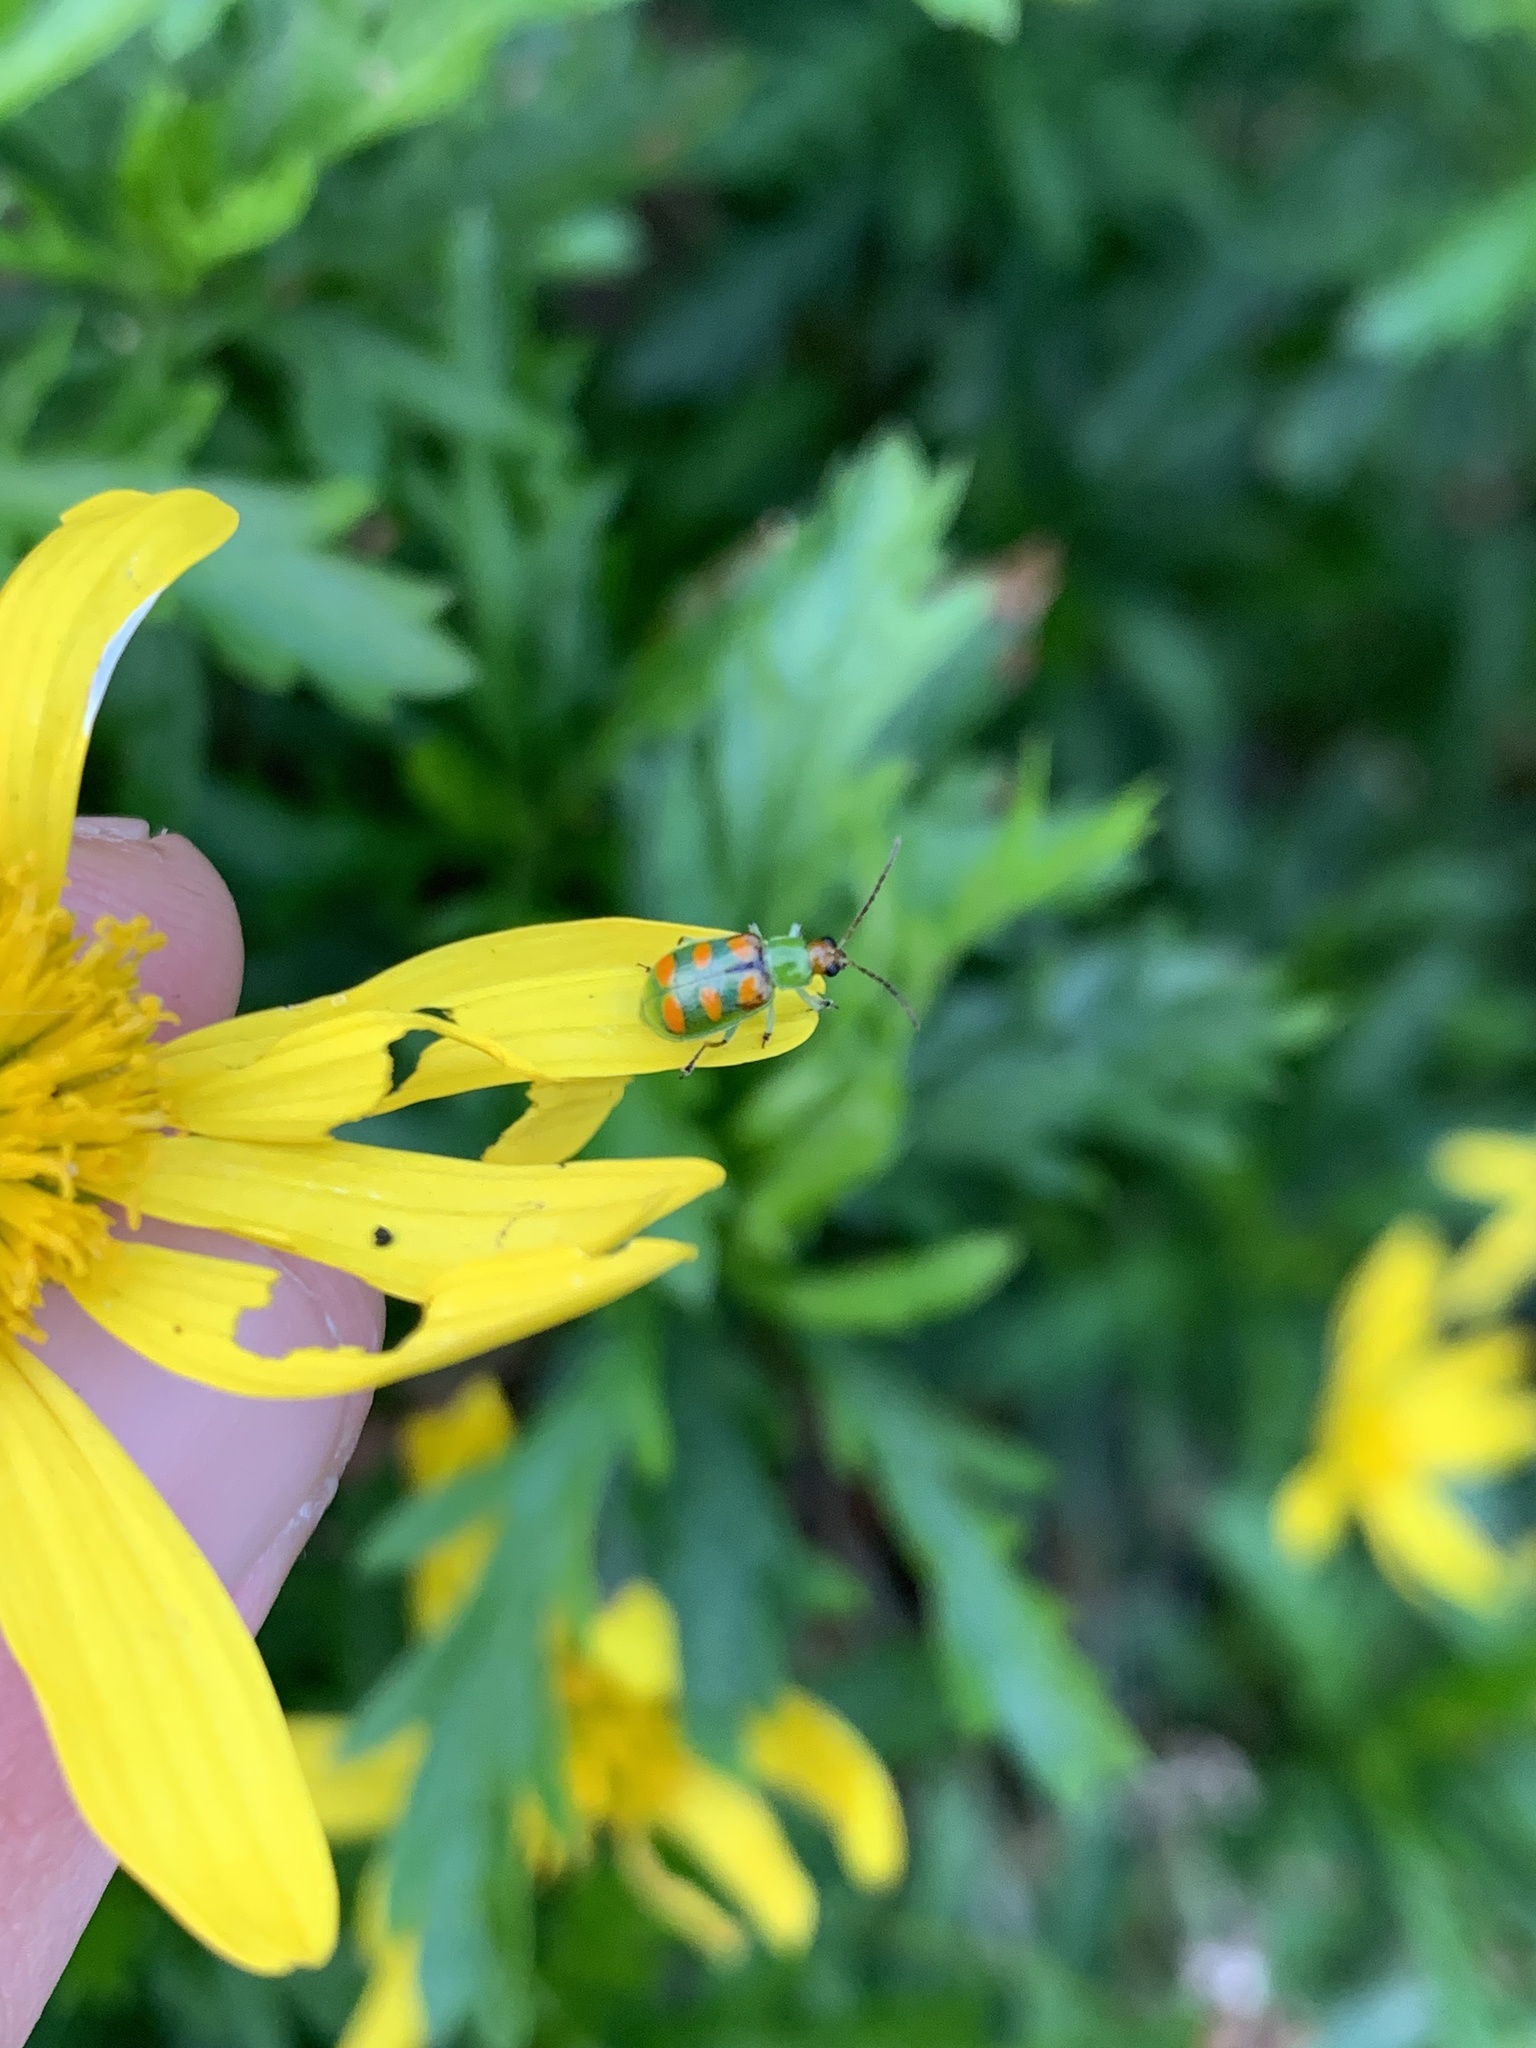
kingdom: Animalia
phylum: Arthropoda
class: Insecta
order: Coleoptera
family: Chrysomelidae
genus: Diabrotica
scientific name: Diabrotica speciosa
